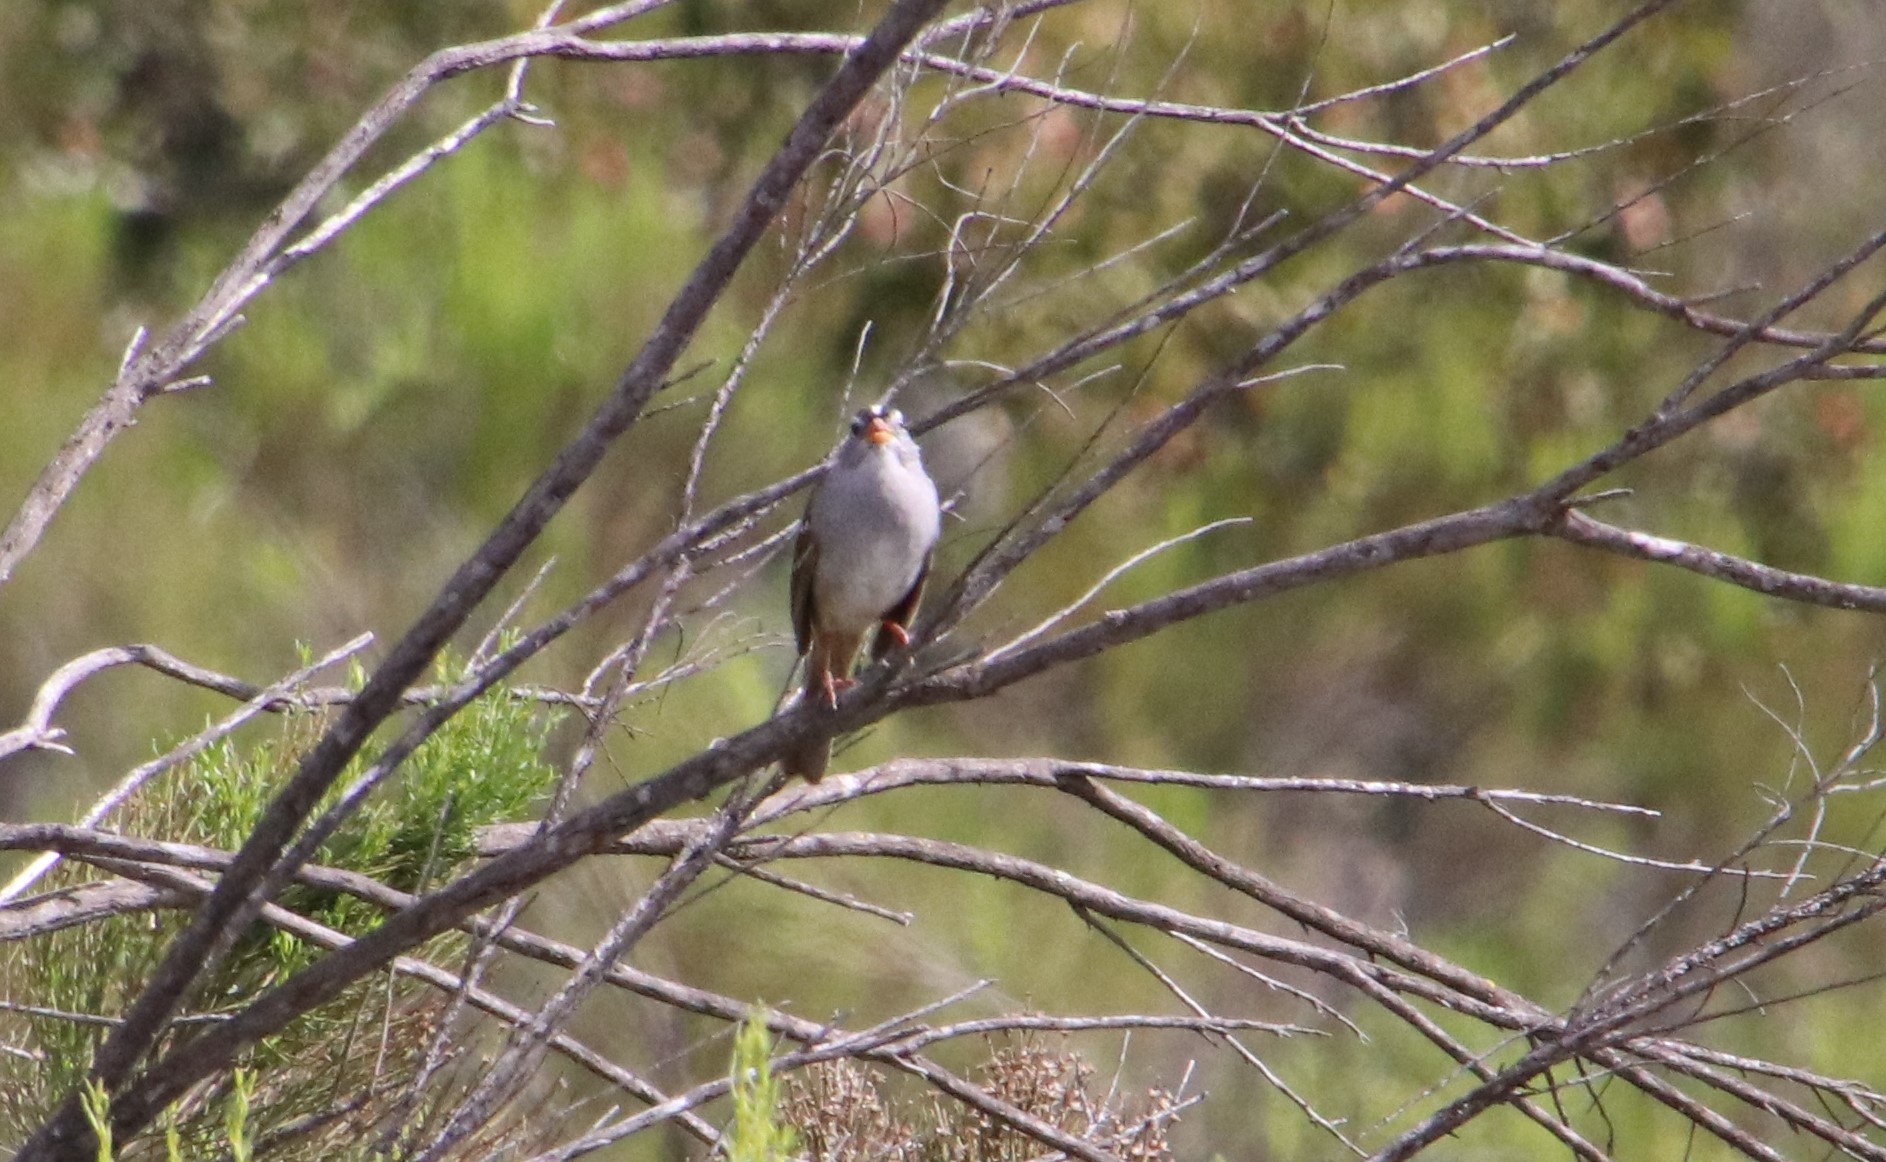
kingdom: Animalia
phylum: Chordata
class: Aves
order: Passeriformes
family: Passerellidae
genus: Zonotrichia
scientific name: Zonotrichia leucophrys
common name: White-crowned sparrow
